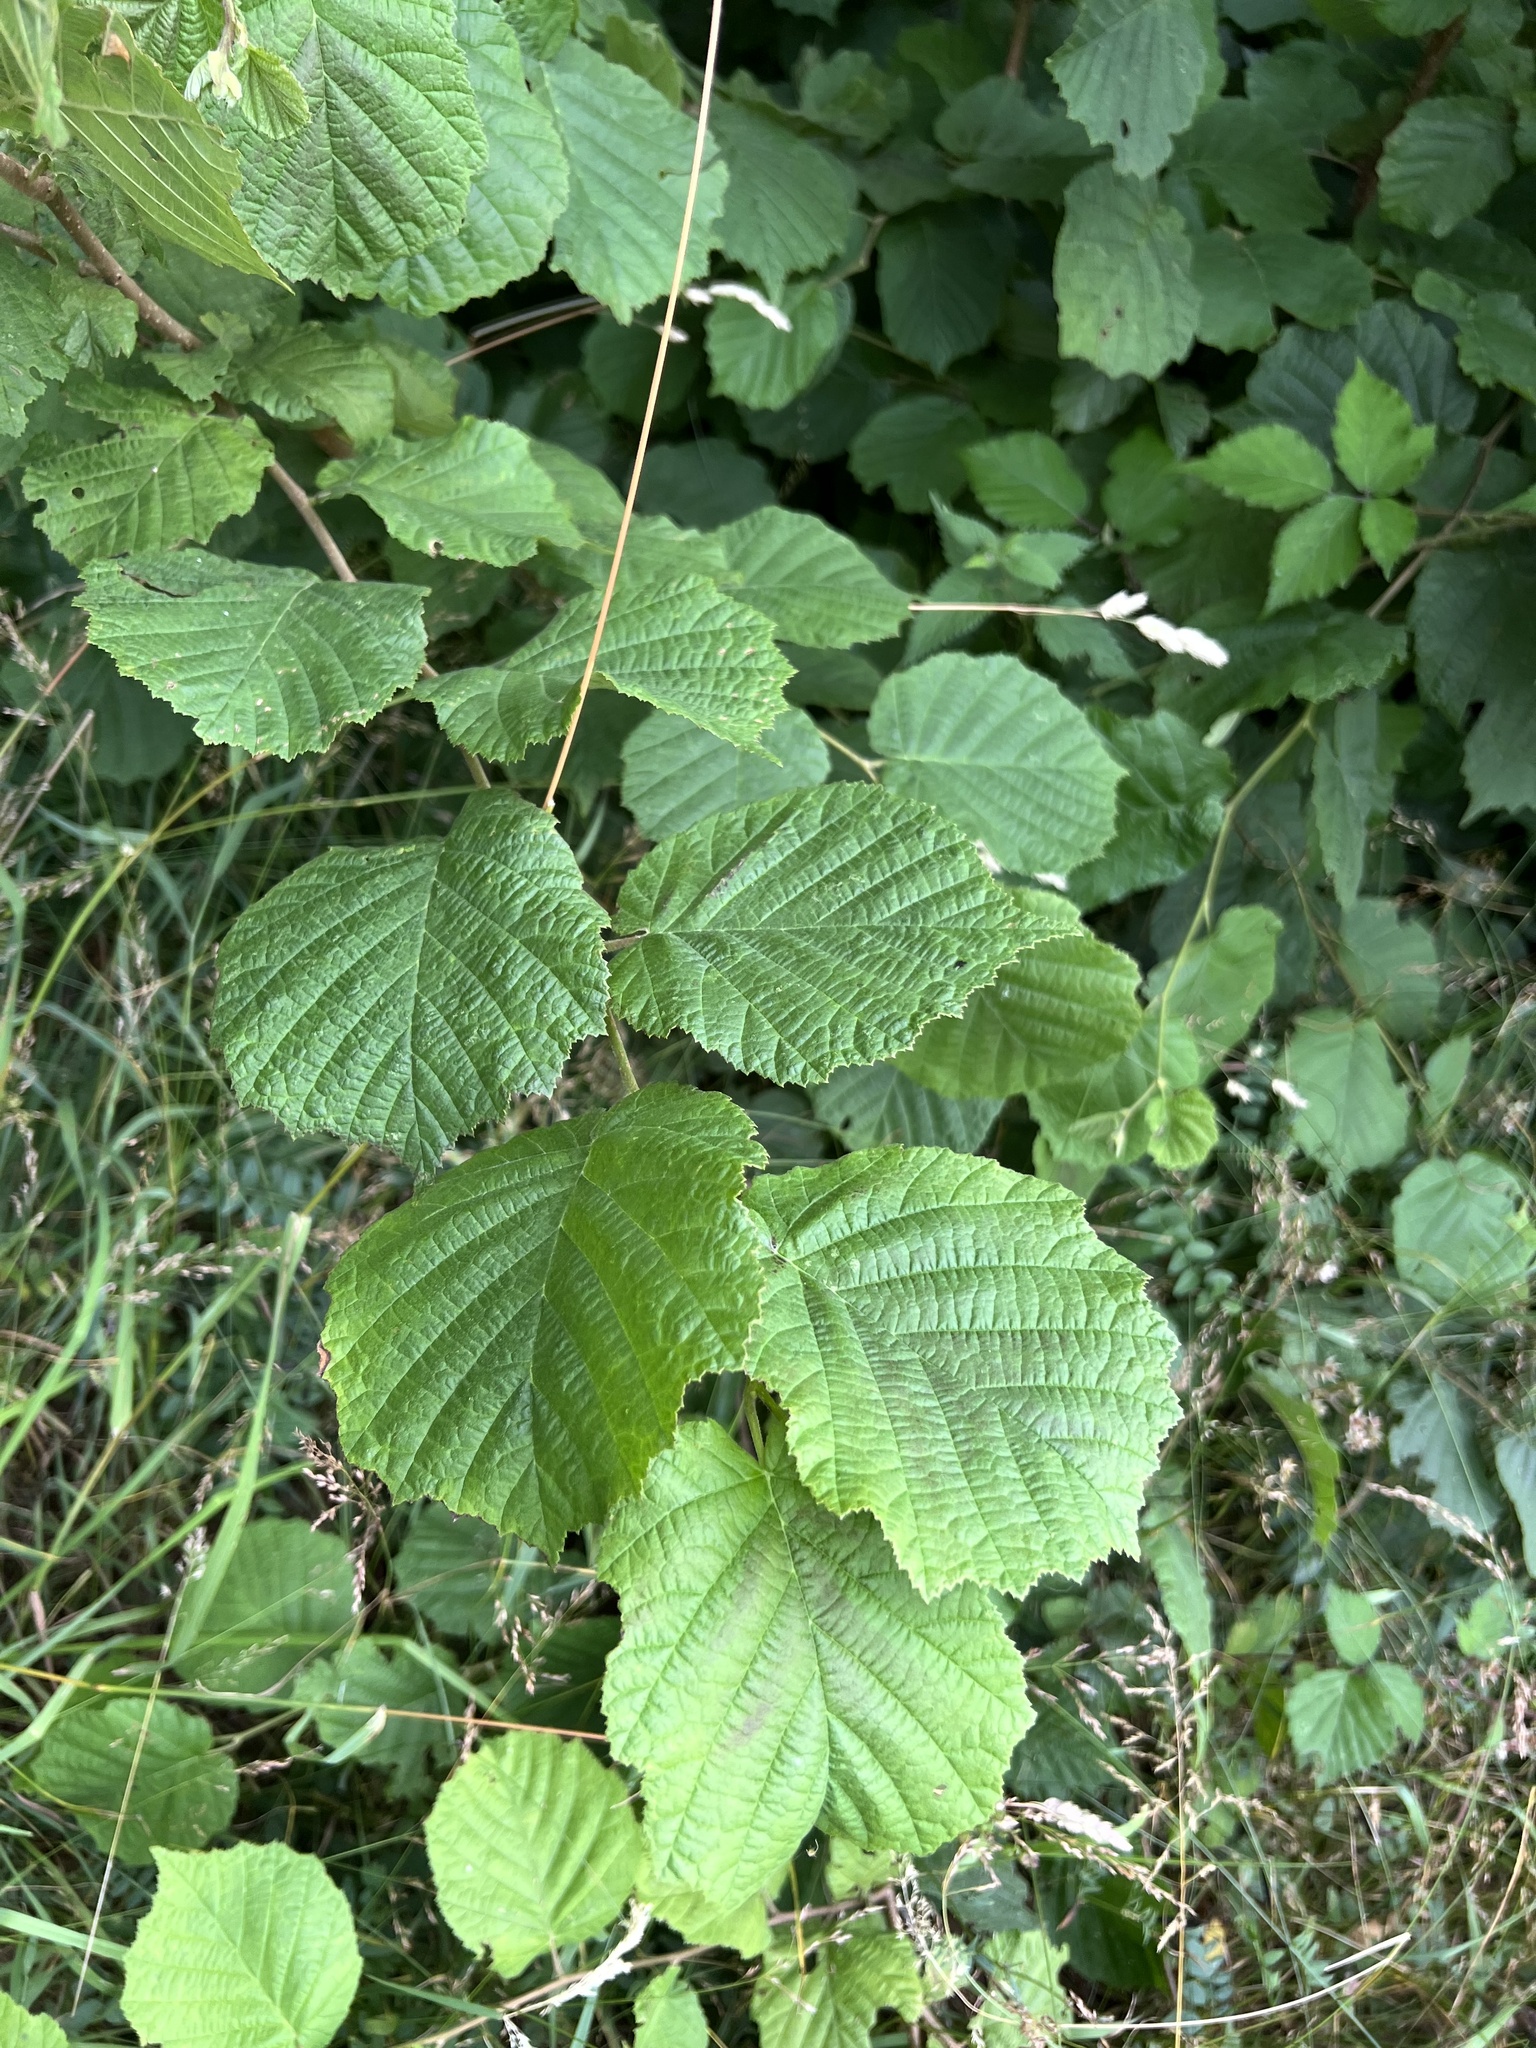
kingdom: Plantae
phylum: Tracheophyta
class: Magnoliopsida
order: Fagales
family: Betulaceae
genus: Corylus
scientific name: Corylus avellana
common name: European hazel
